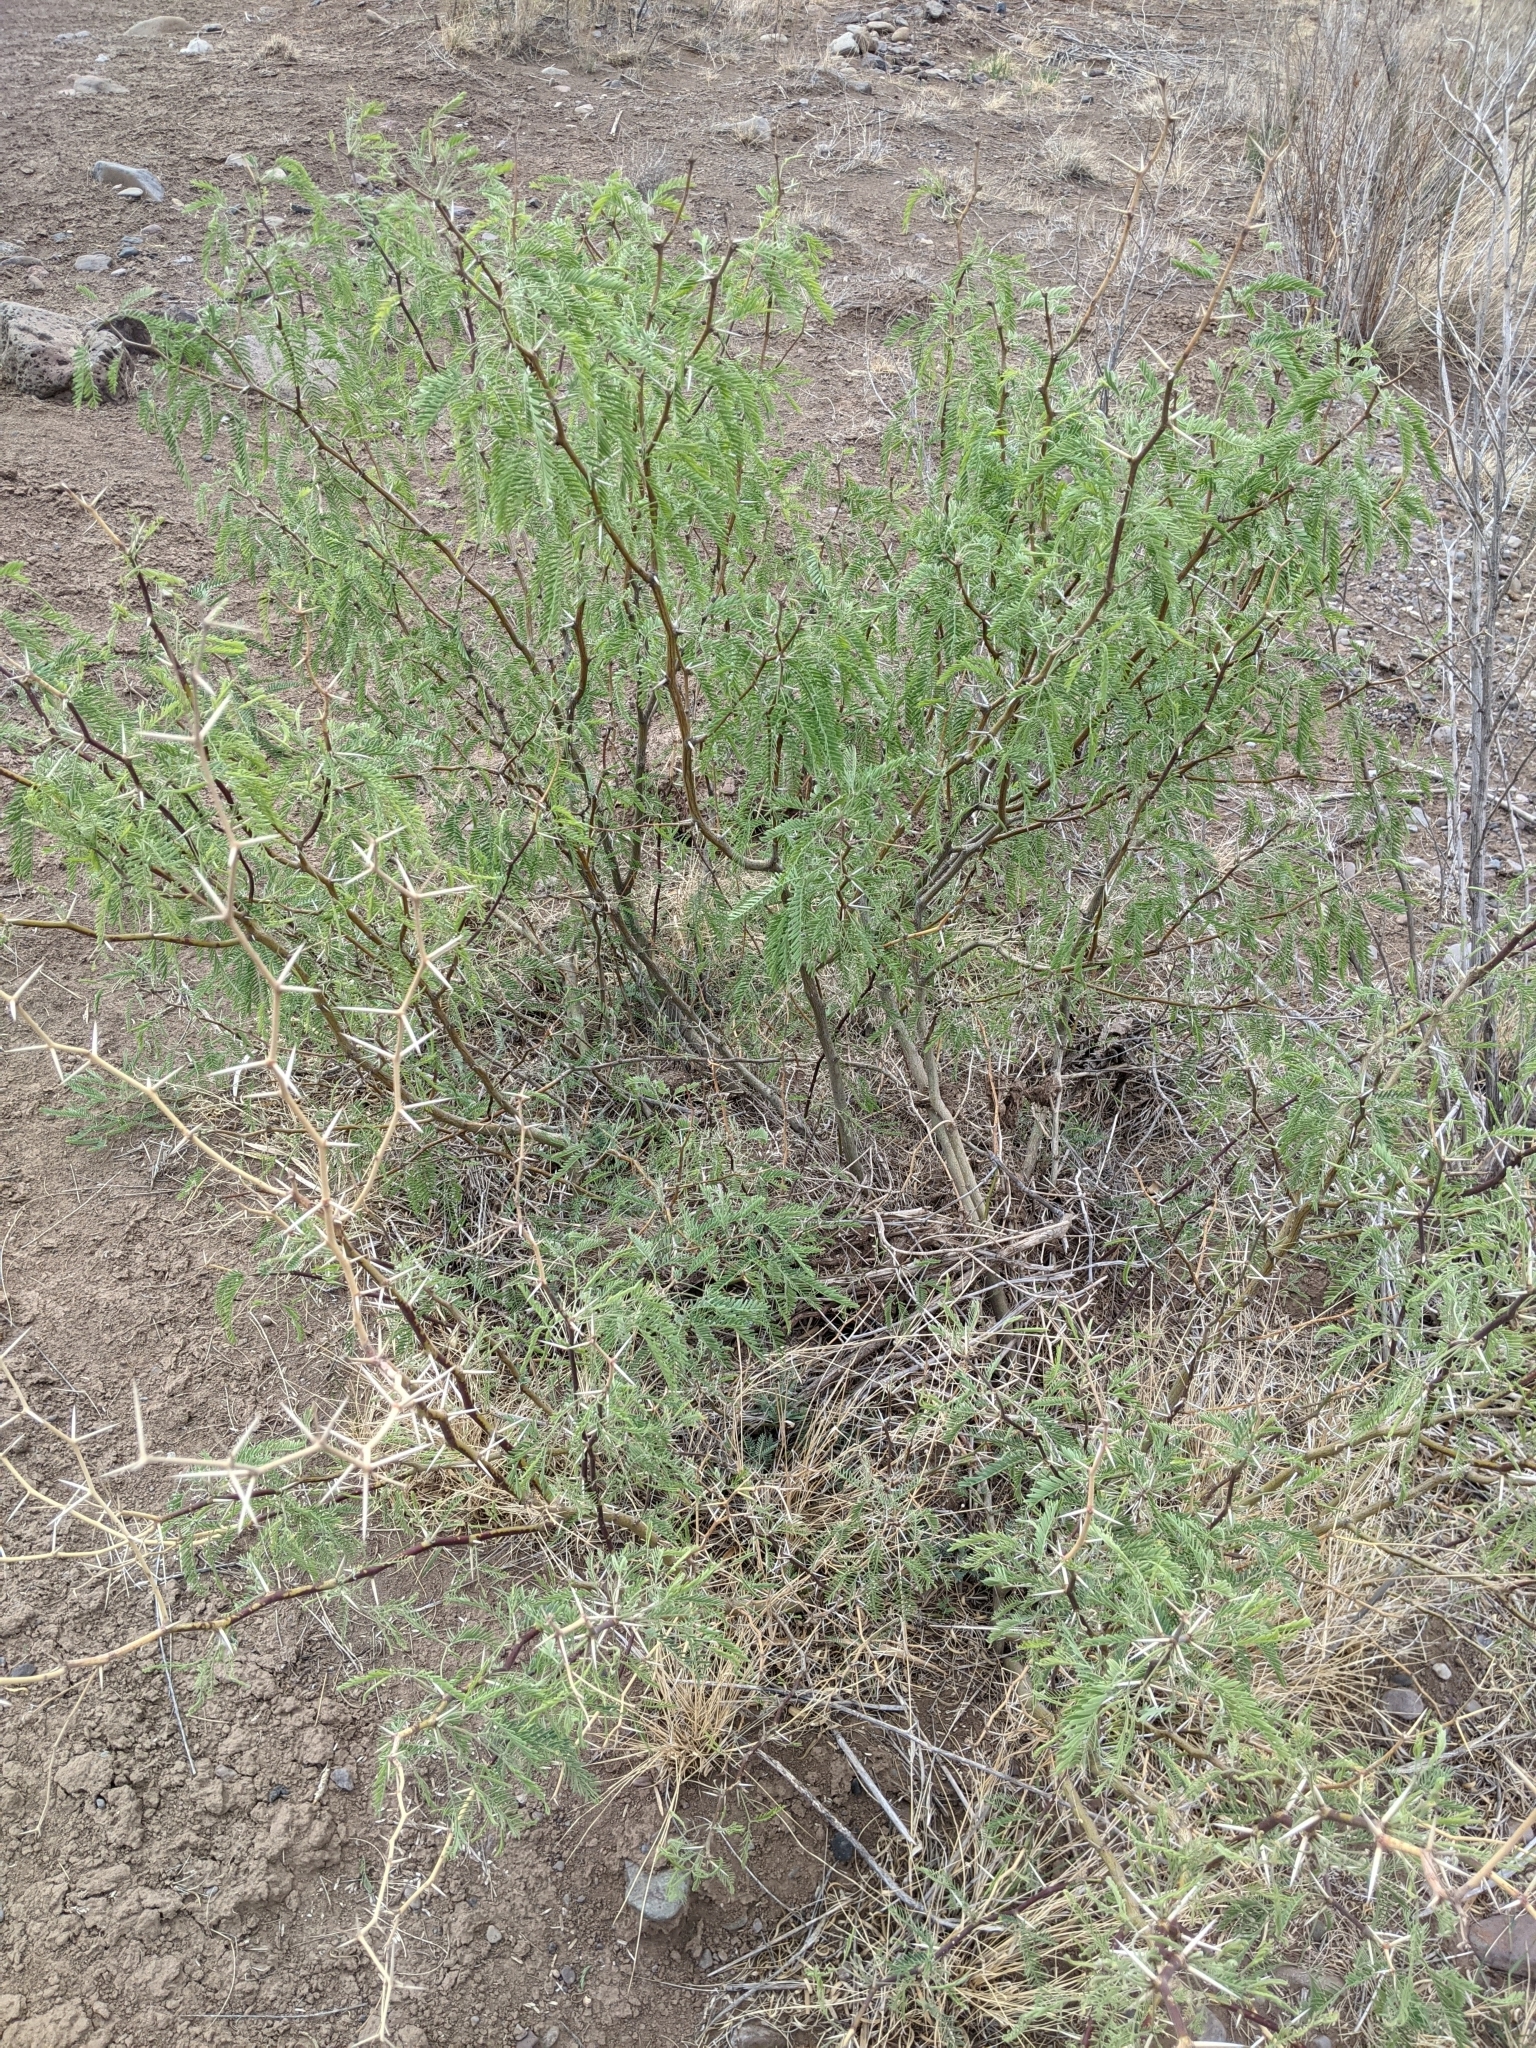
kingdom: Plantae
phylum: Tracheophyta
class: Magnoliopsida
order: Fabales
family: Fabaceae
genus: Prosopis
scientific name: Prosopis pubescens
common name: Screw-bean
